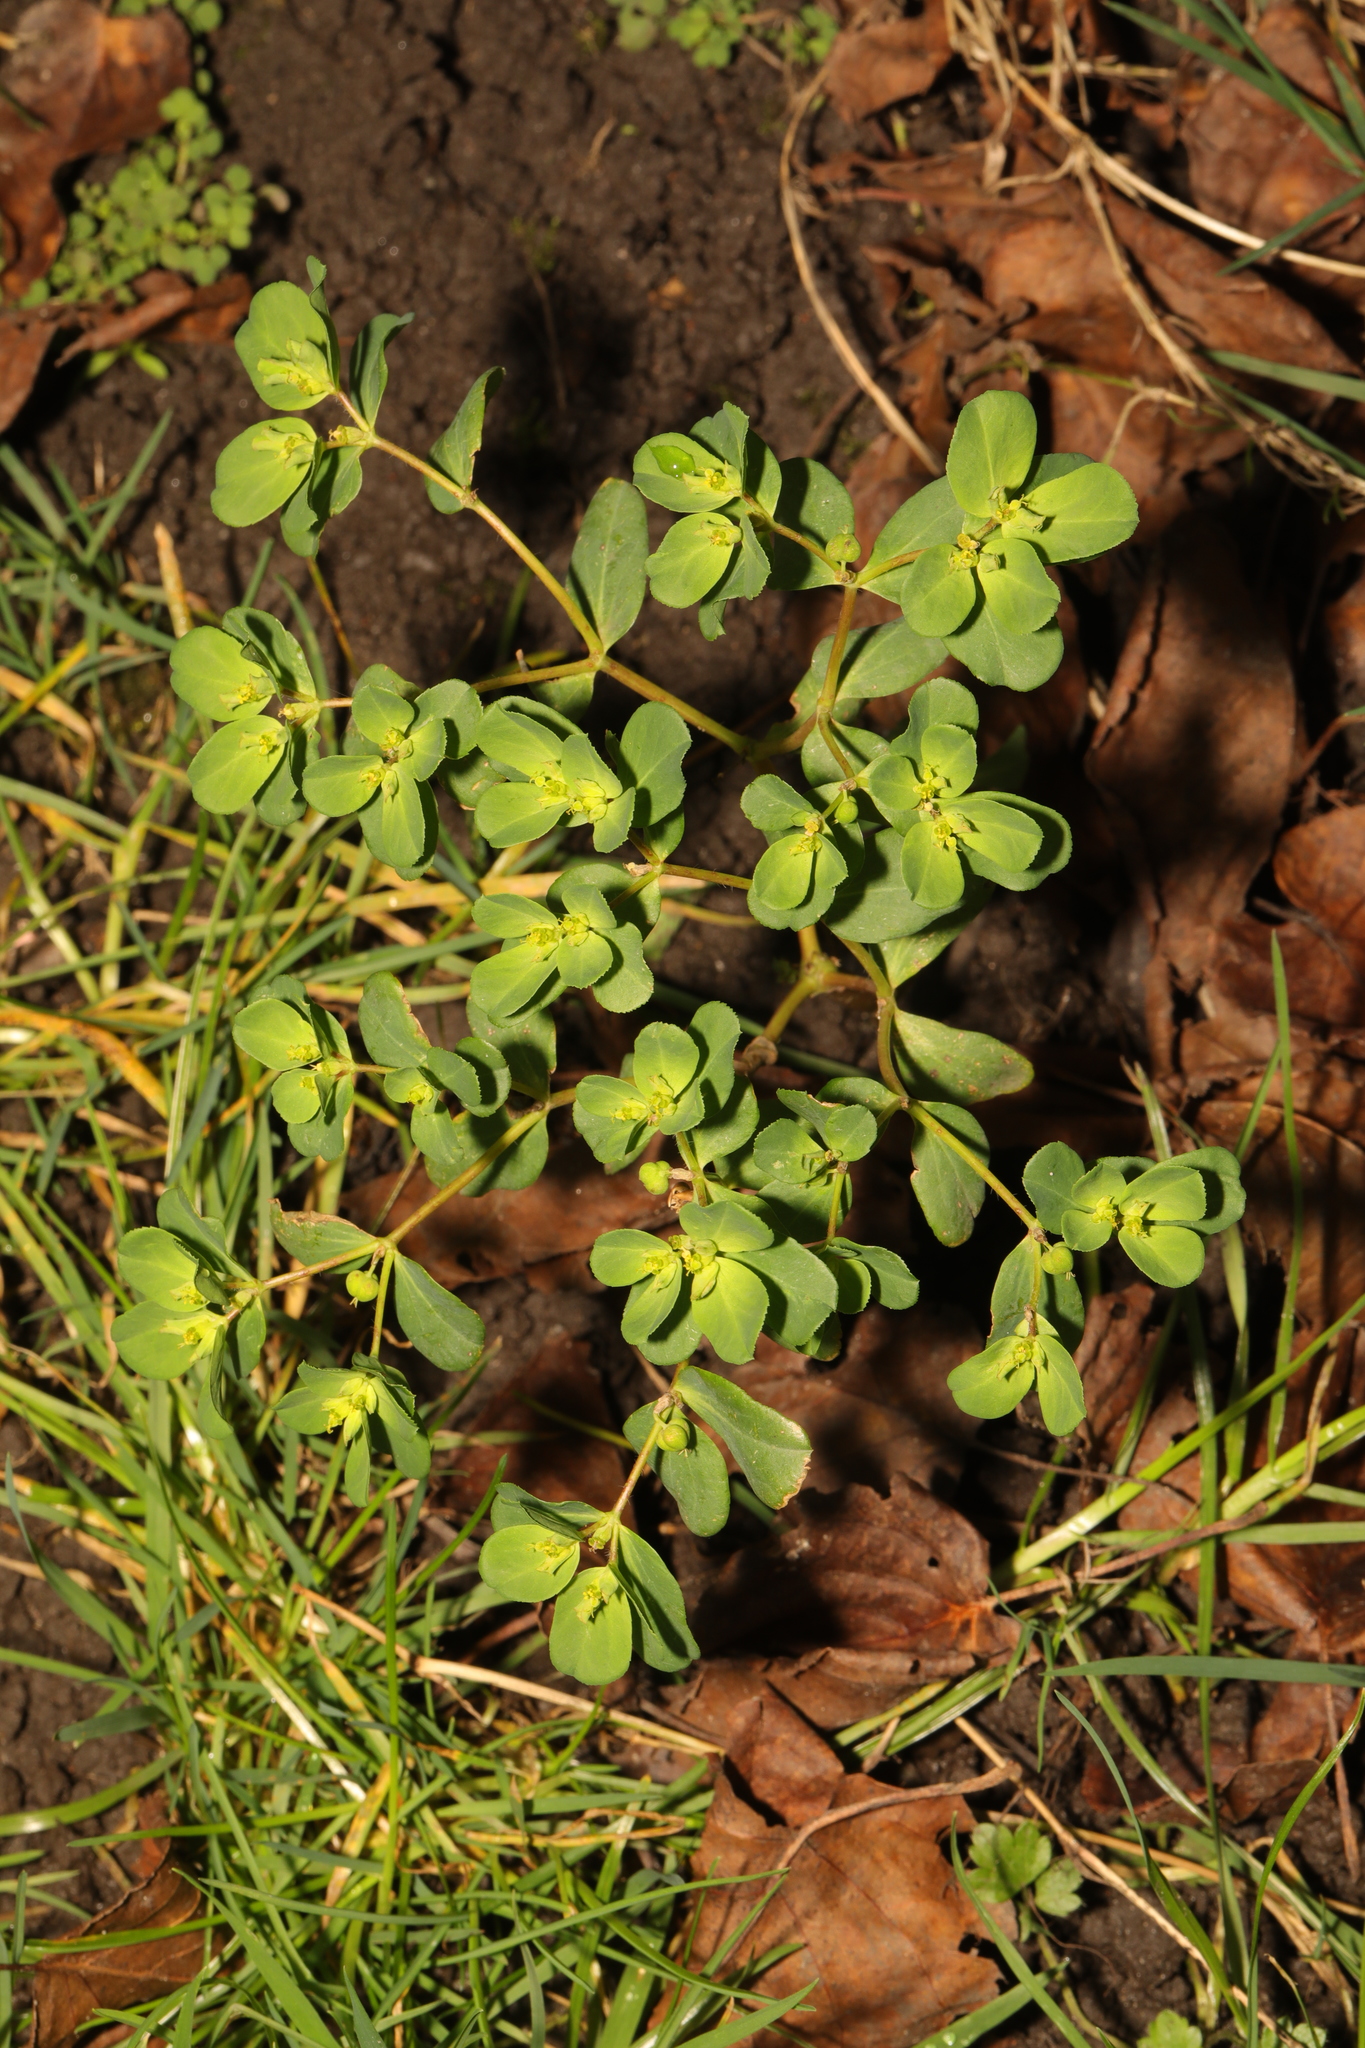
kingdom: Plantae
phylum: Tracheophyta
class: Magnoliopsida
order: Malpighiales
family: Euphorbiaceae
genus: Euphorbia
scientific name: Euphorbia helioscopia
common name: Sun spurge
